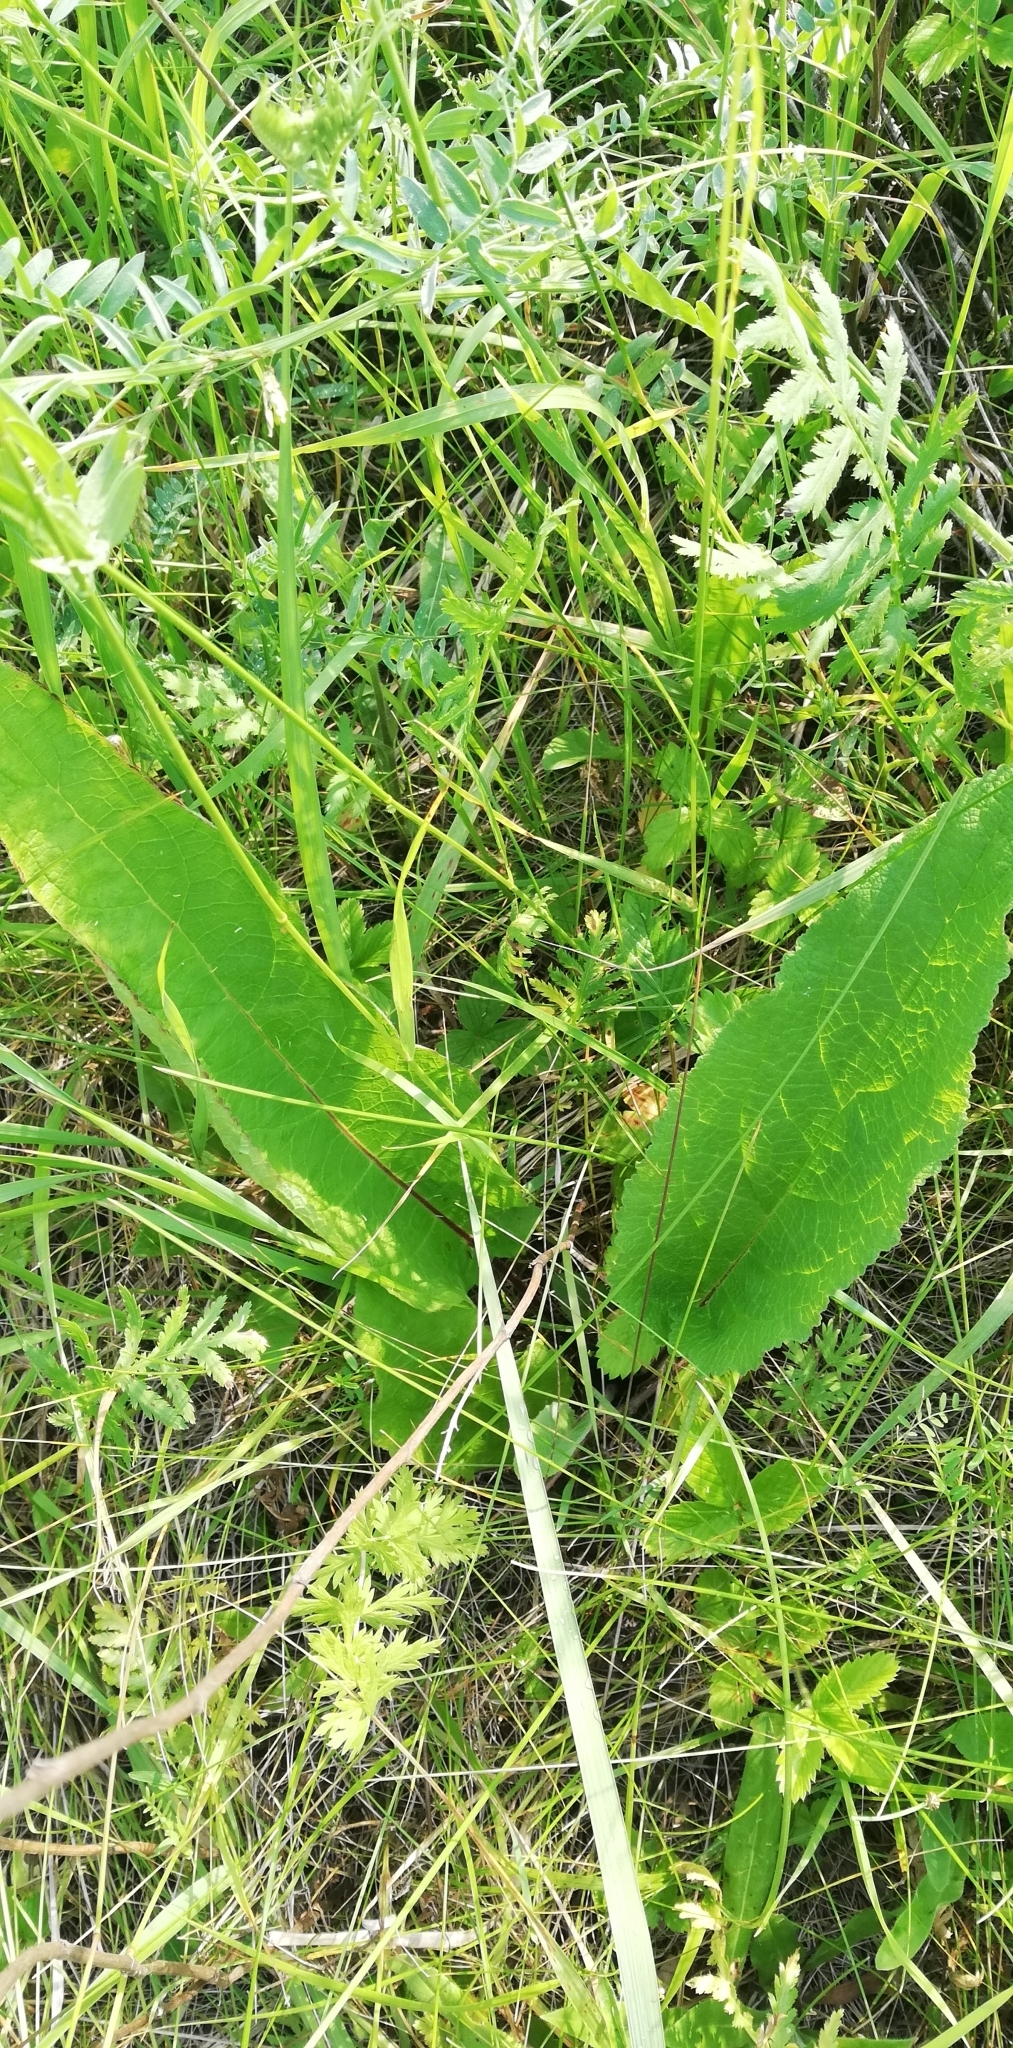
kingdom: Plantae
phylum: Tracheophyta
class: Magnoliopsida
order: Lamiales
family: Scrophulariaceae
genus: Verbascum
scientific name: Verbascum nigrum
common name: Dark mullein
